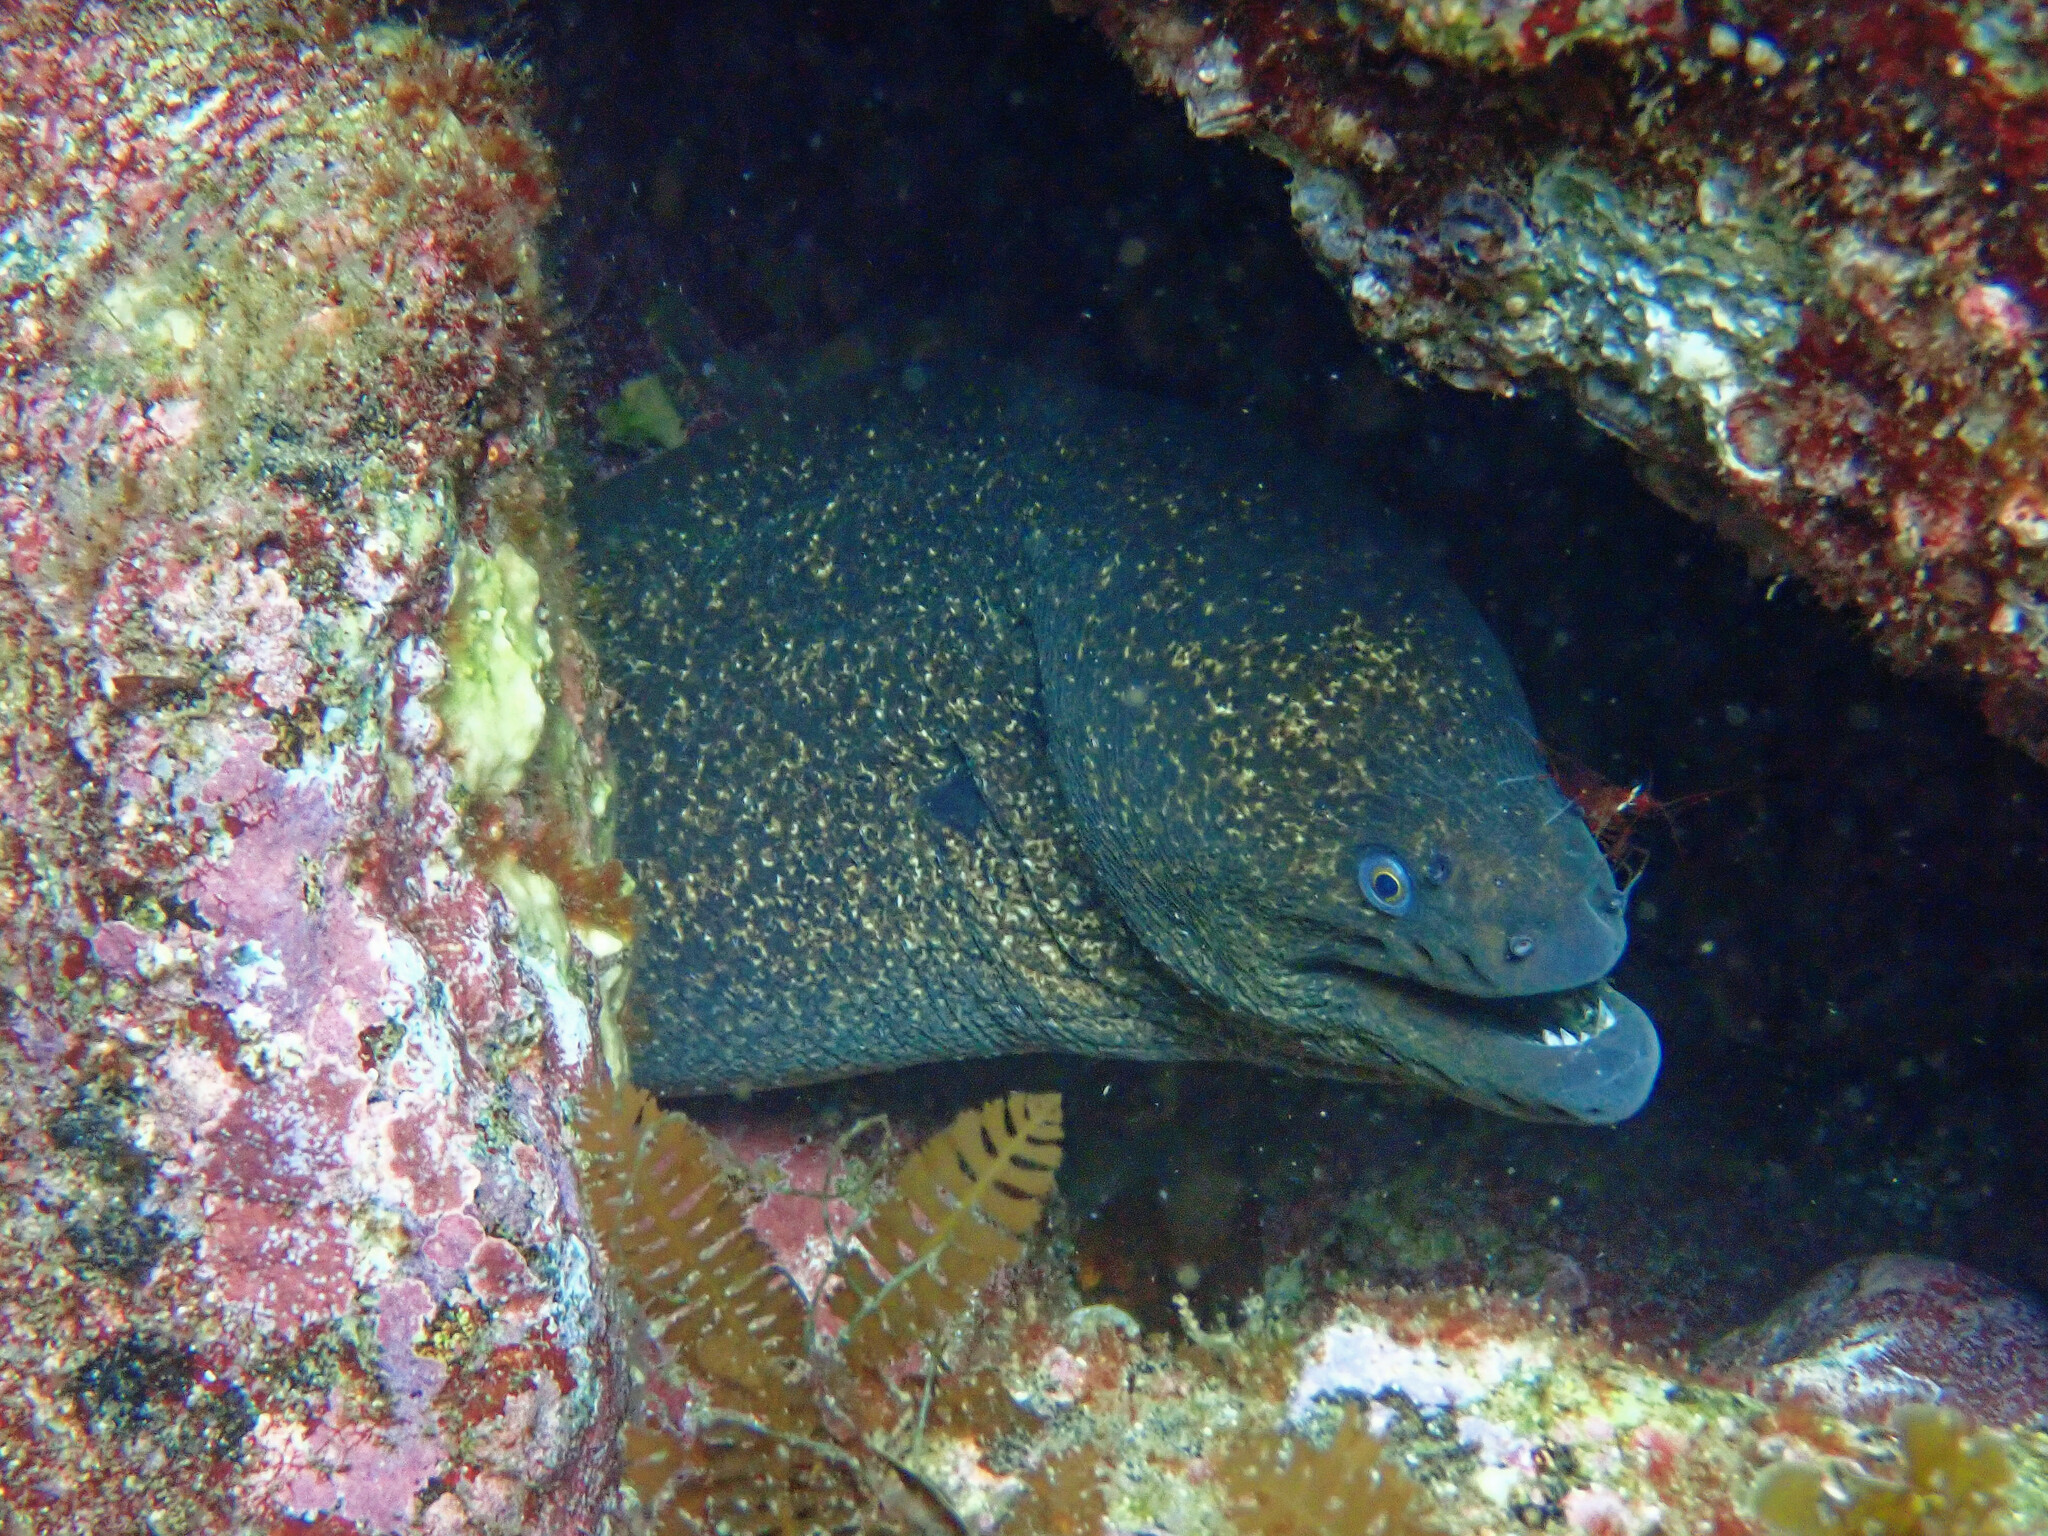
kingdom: Animalia
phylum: Chordata
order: Anguilliformes
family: Muraenidae
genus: Gymnothorax
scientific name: Gymnothorax mordax
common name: California moray
